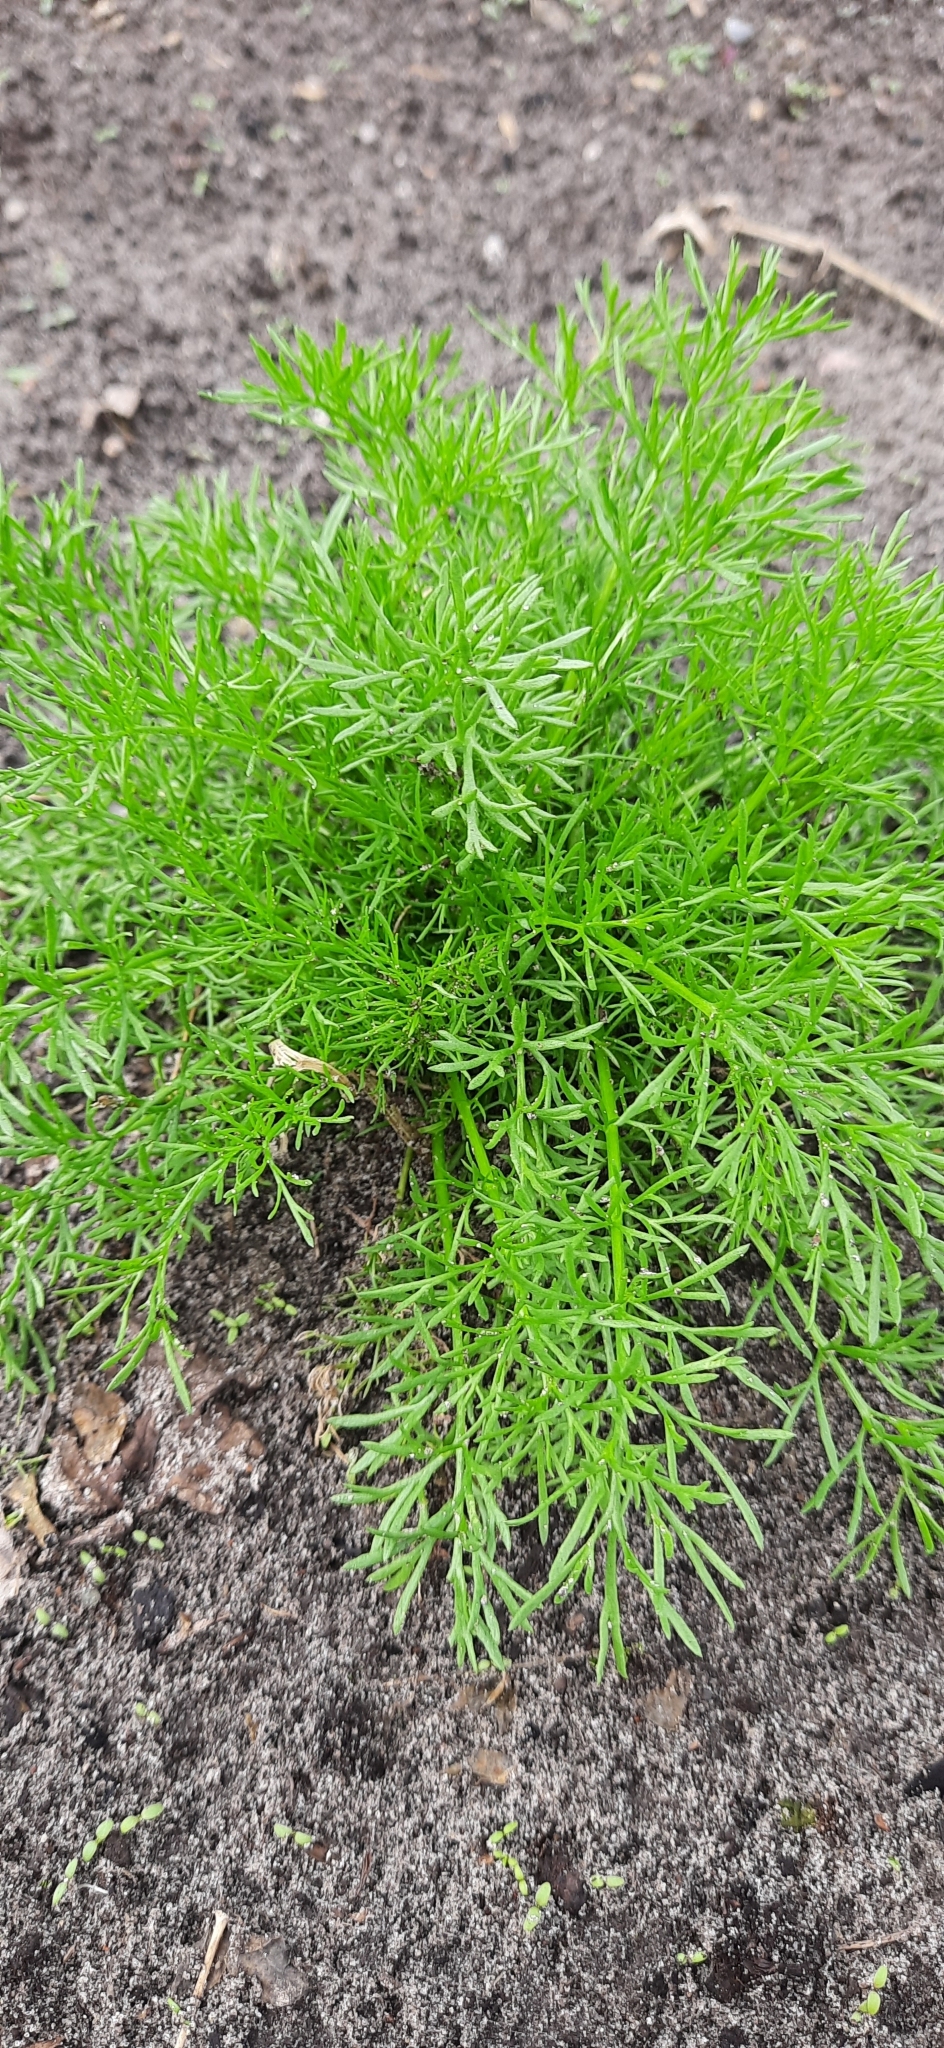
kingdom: Plantae
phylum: Tracheophyta
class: Magnoliopsida
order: Asterales
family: Asteraceae
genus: Tripleurospermum
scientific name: Tripleurospermum inodorum
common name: Scentless mayweed
